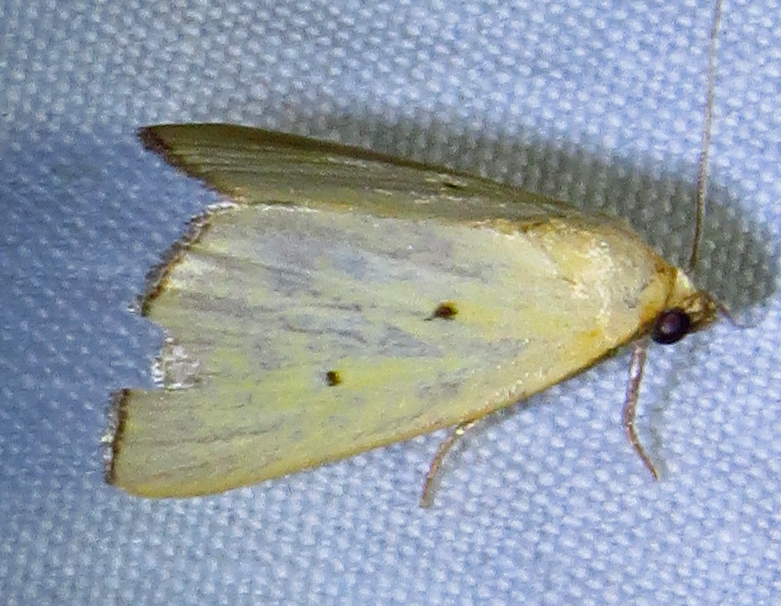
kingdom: Animalia
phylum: Arthropoda
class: Insecta
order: Lepidoptera
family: Noctuidae
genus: Marimatha
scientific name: Marimatha nigrofimbria
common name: Black-bordered lemon moth
